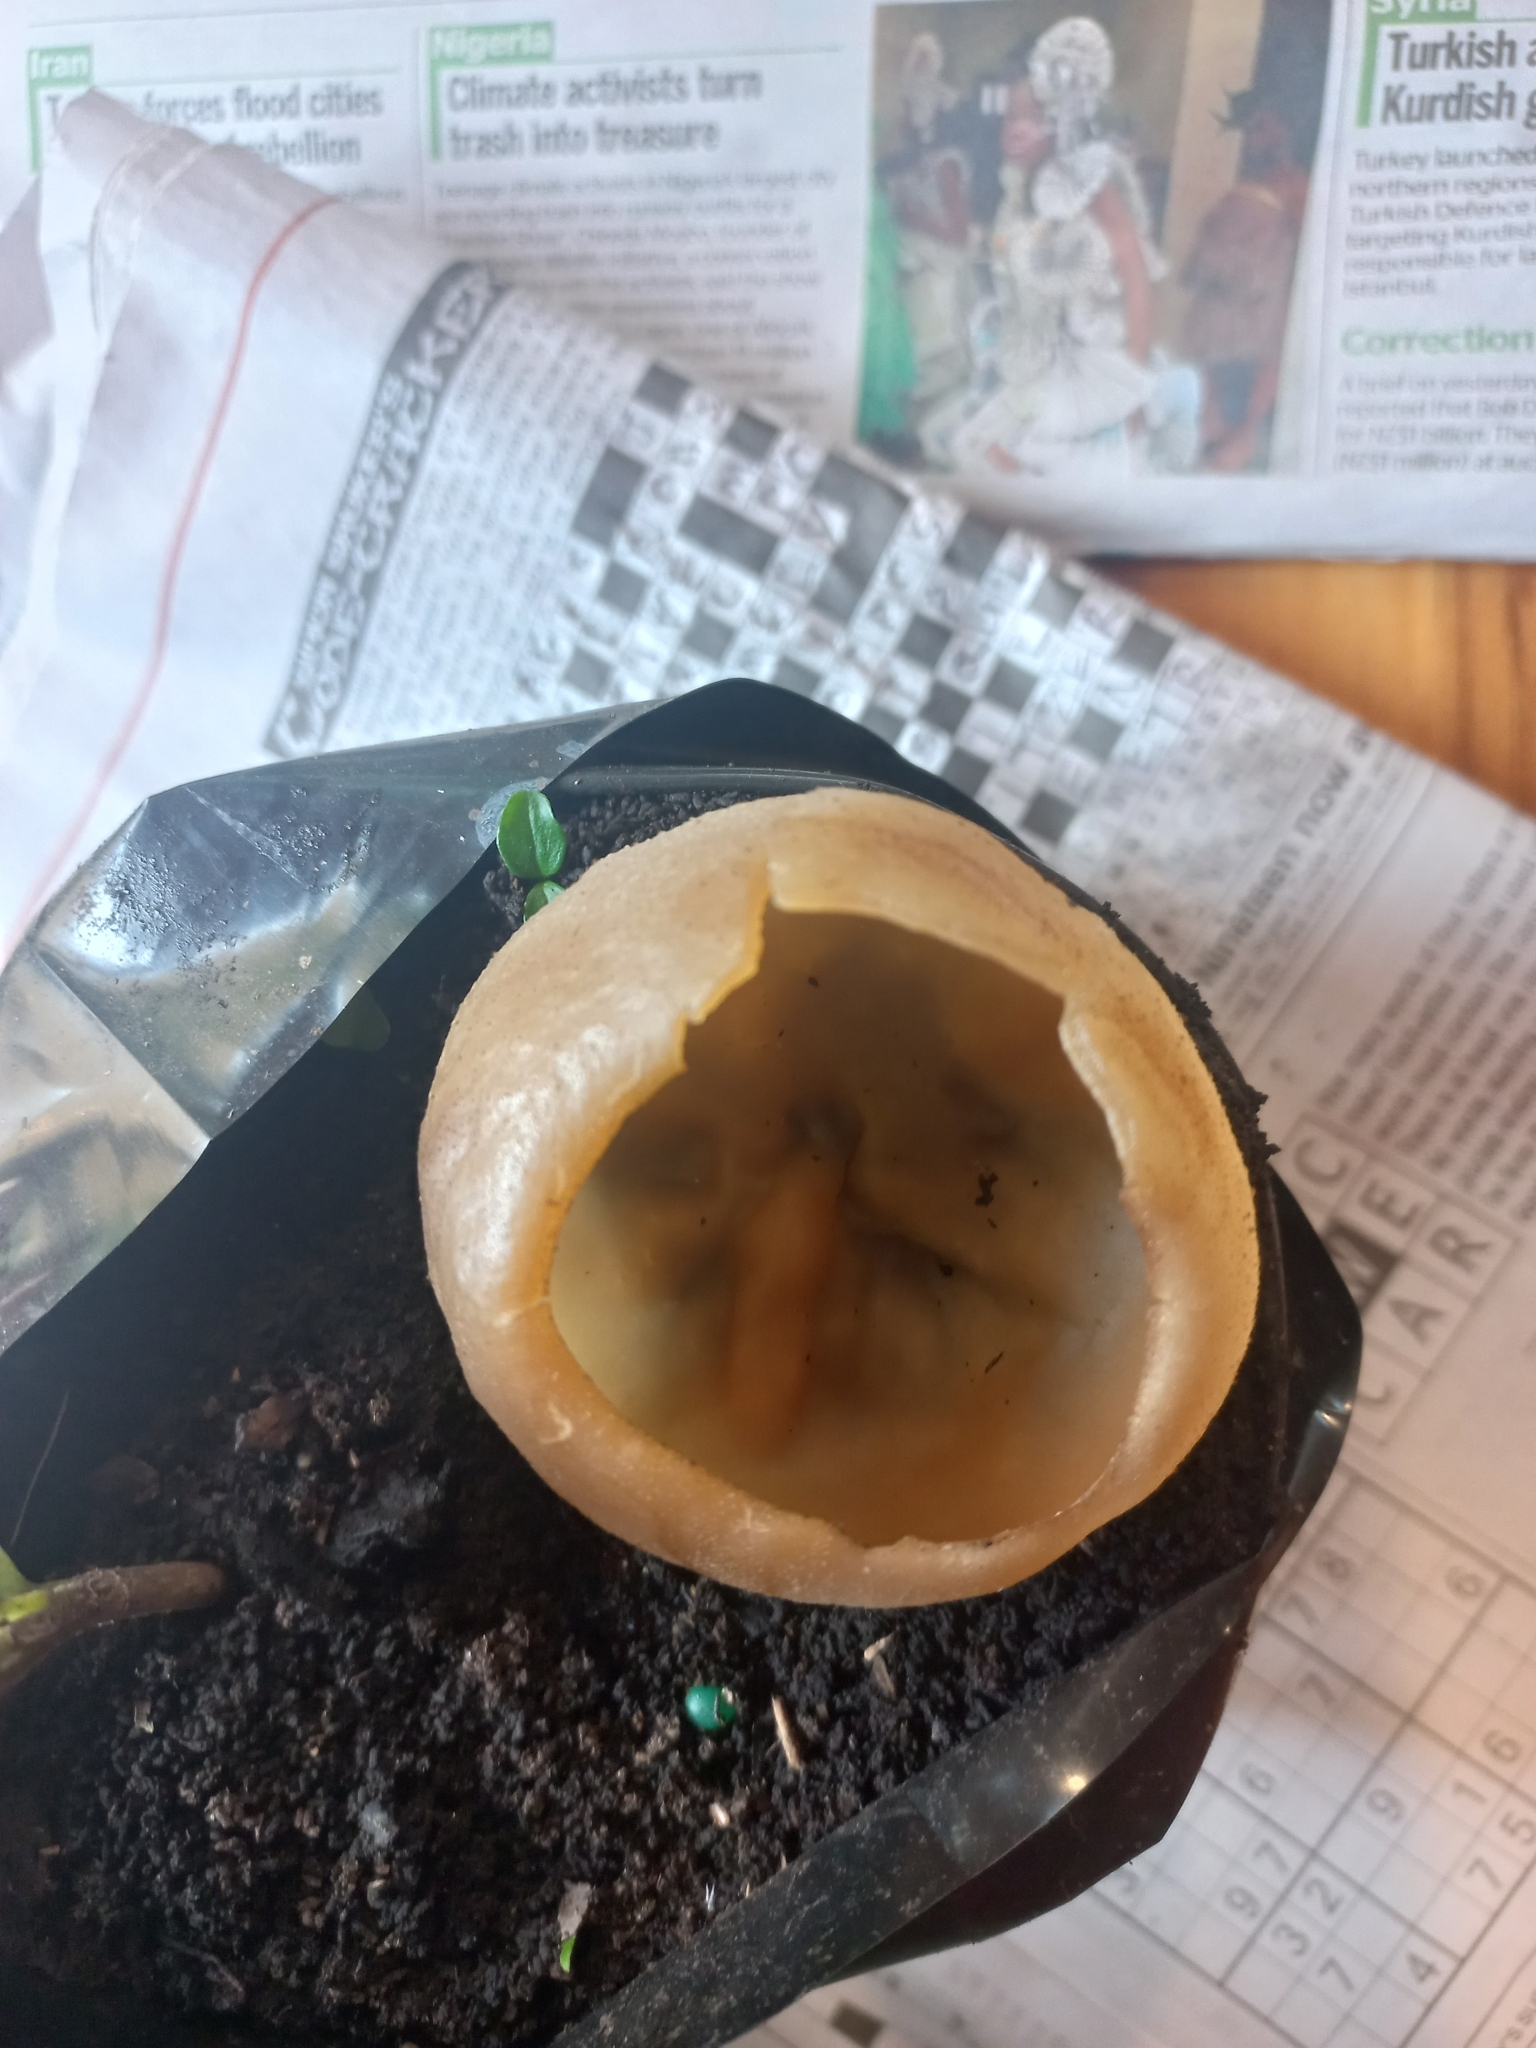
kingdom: Fungi
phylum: Ascomycota
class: Pezizomycetes
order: Pezizales
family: Pezizaceae
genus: Peziza
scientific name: Peziza varia
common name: Layered cup
